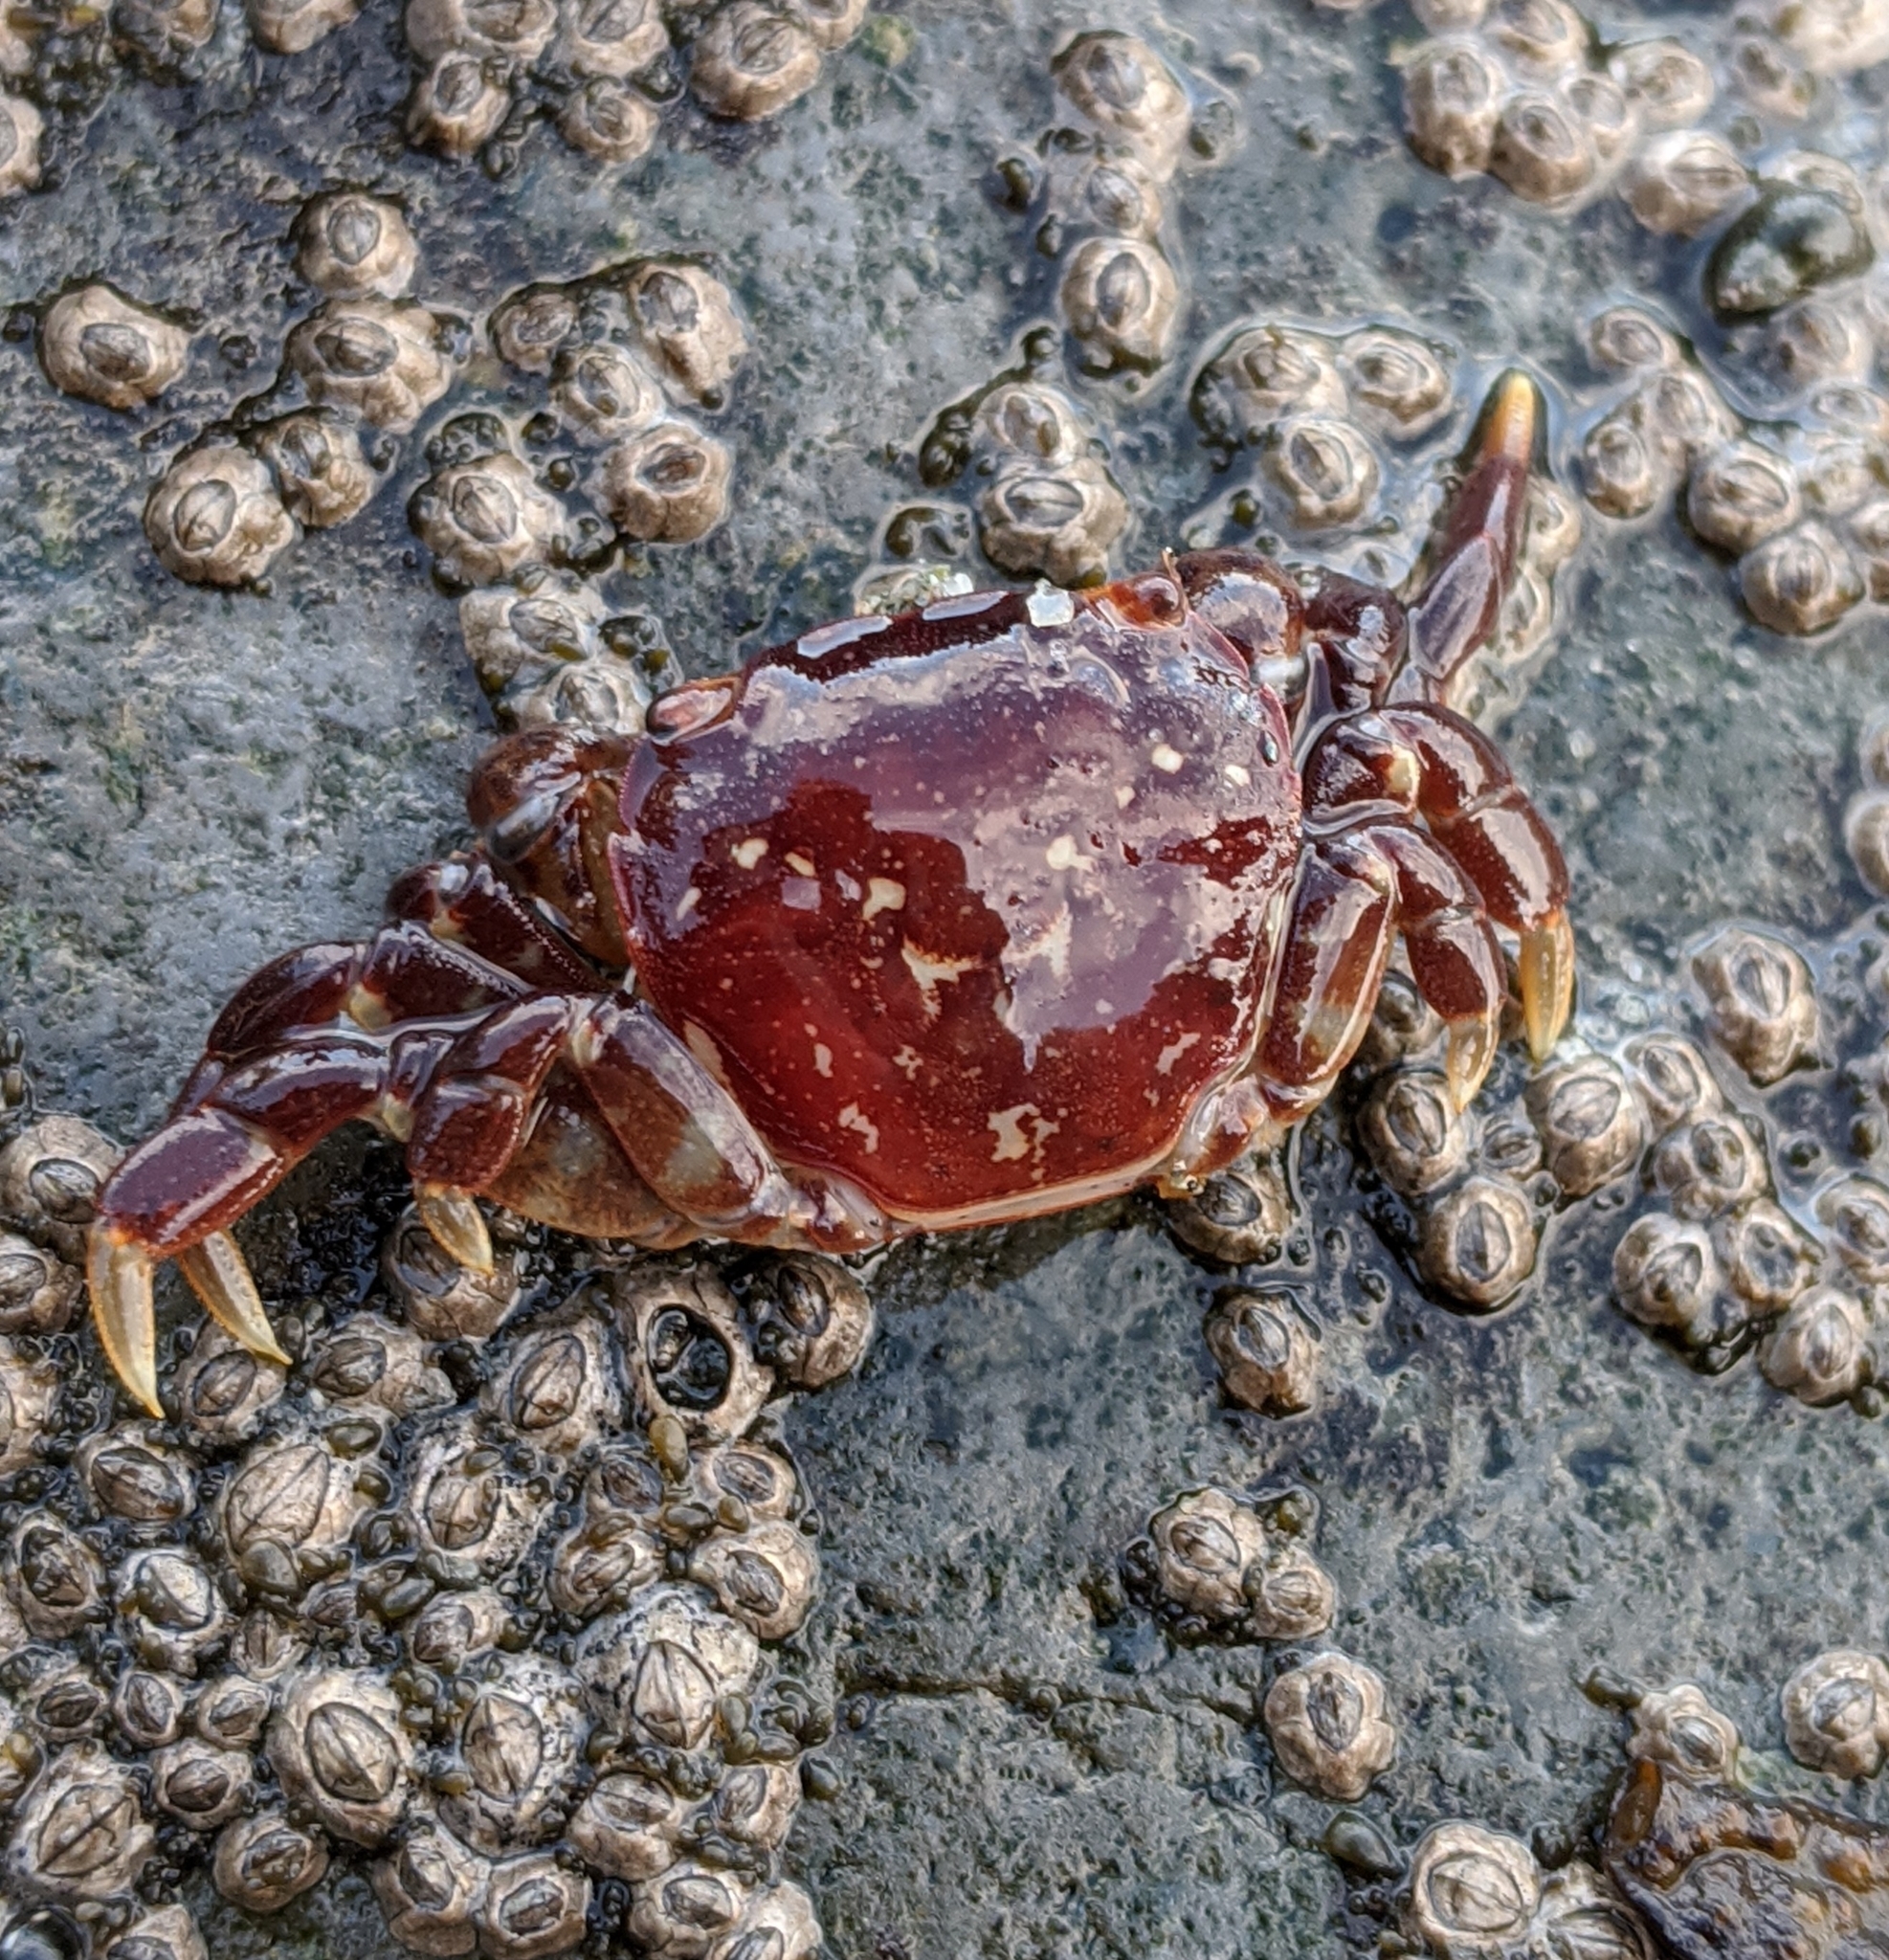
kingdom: Animalia
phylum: Arthropoda
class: Malacostraca
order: Decapoda
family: Varunidae
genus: Hemigrapsus
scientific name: Hemigrapsus nudus
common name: Purple shore crab
